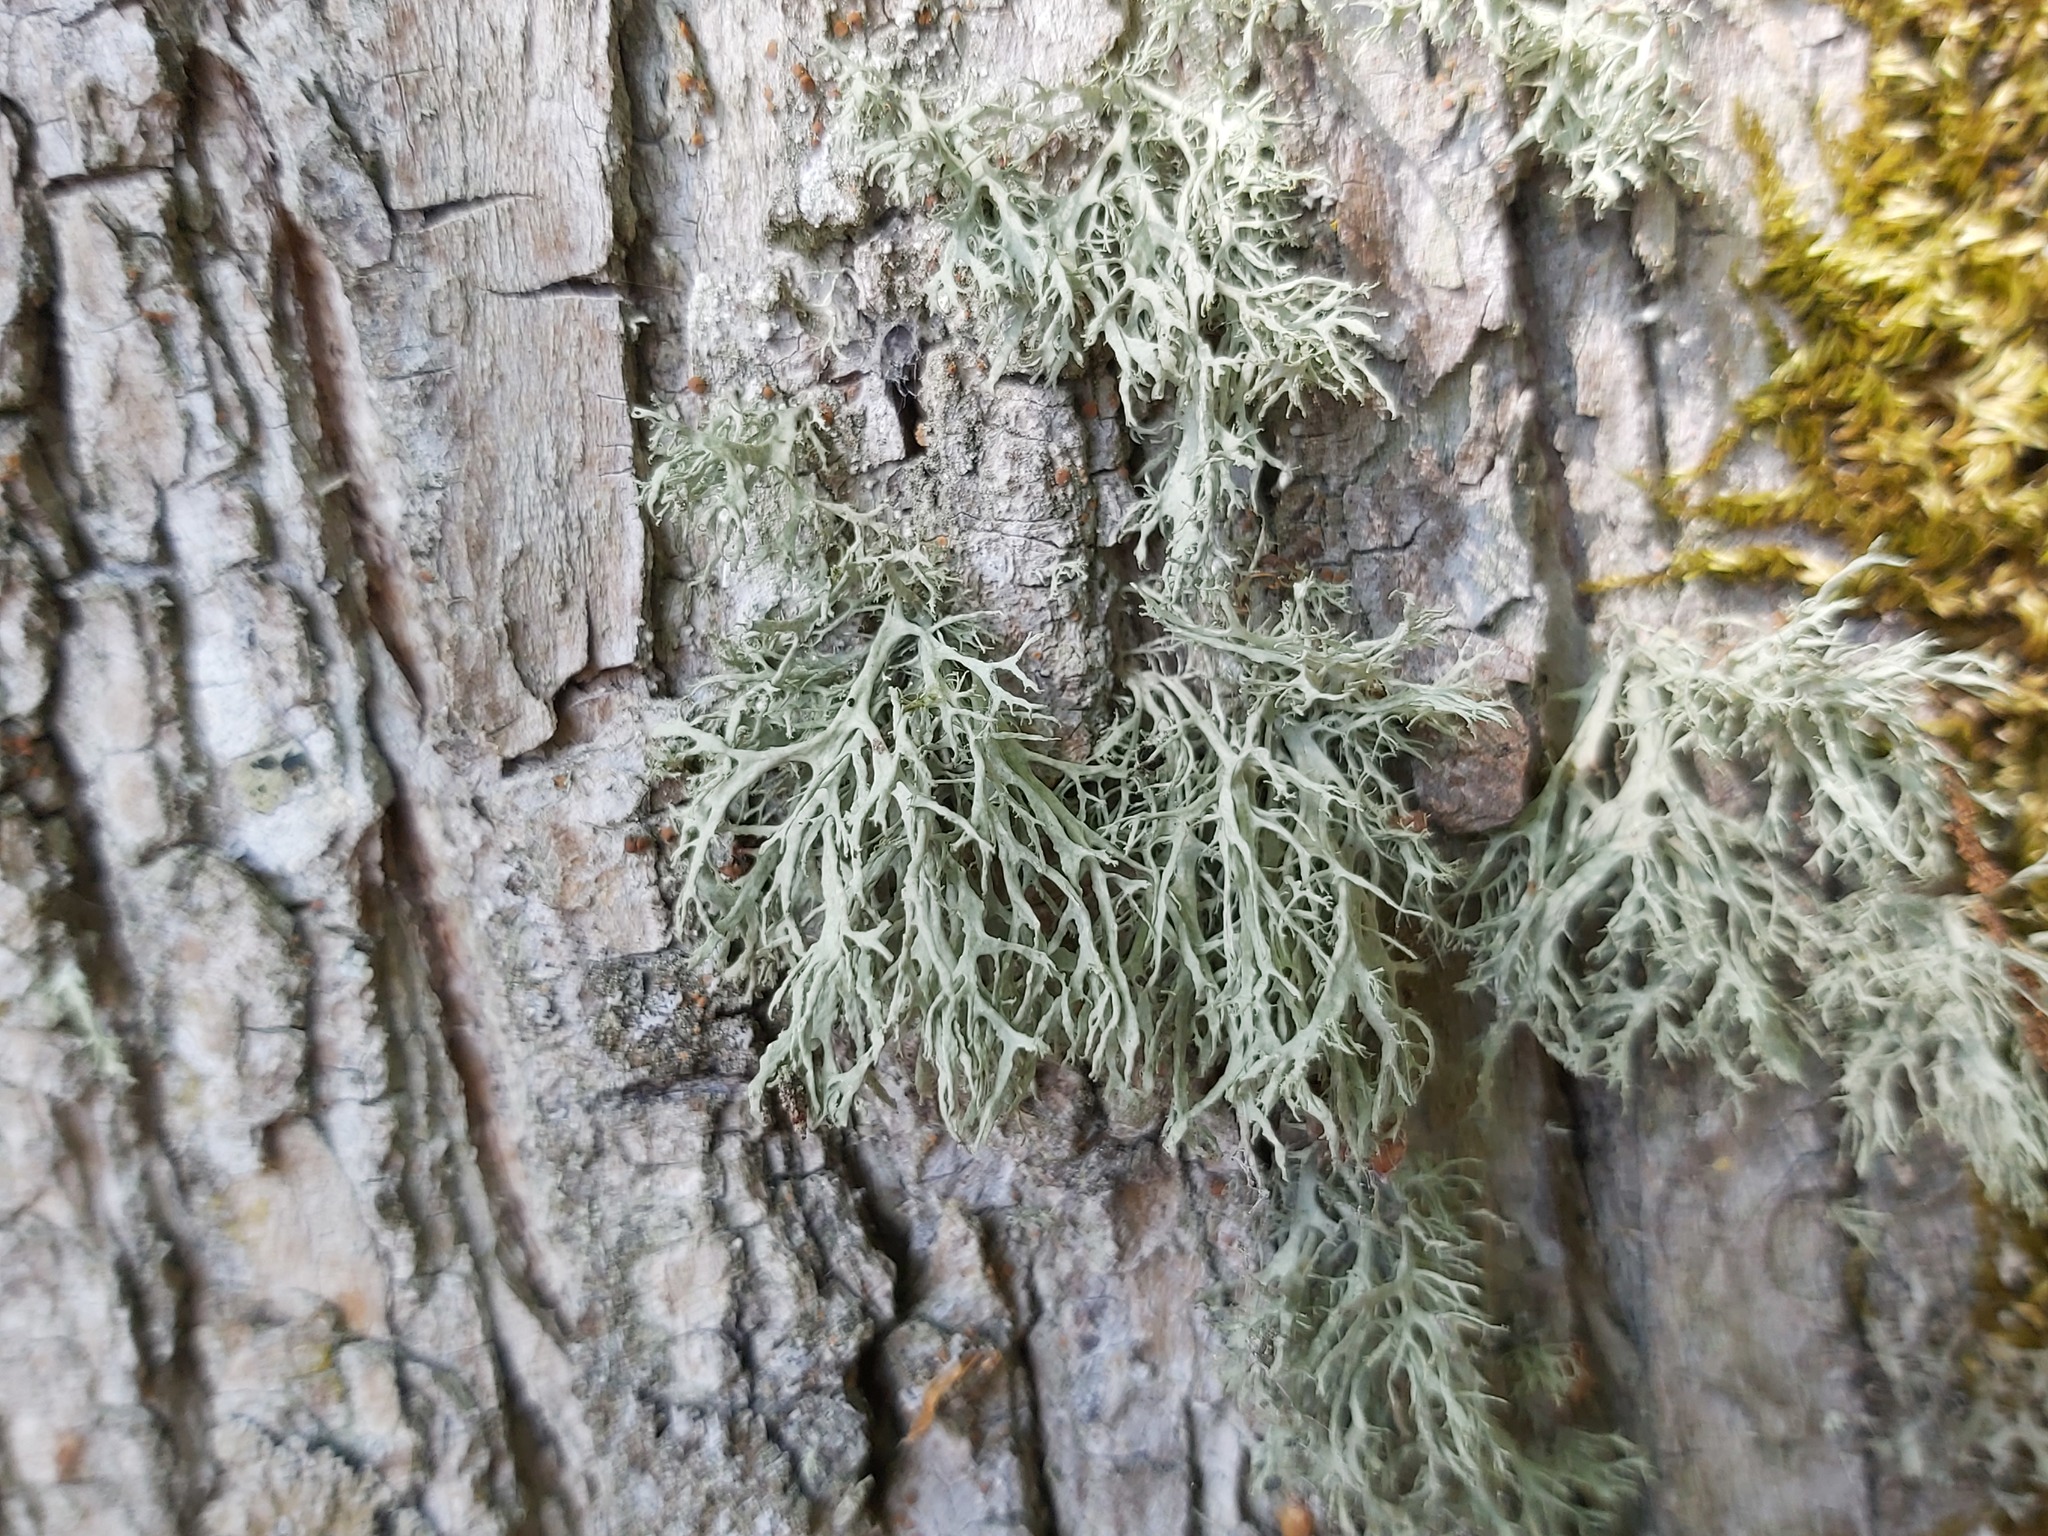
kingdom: Fungi
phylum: Ascomycota
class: Lecanoromycetes
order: Lecanorales
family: Ramalinaceae
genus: Ramalina
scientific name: Ramalina farinacea
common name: Farinose cartilage lichen
